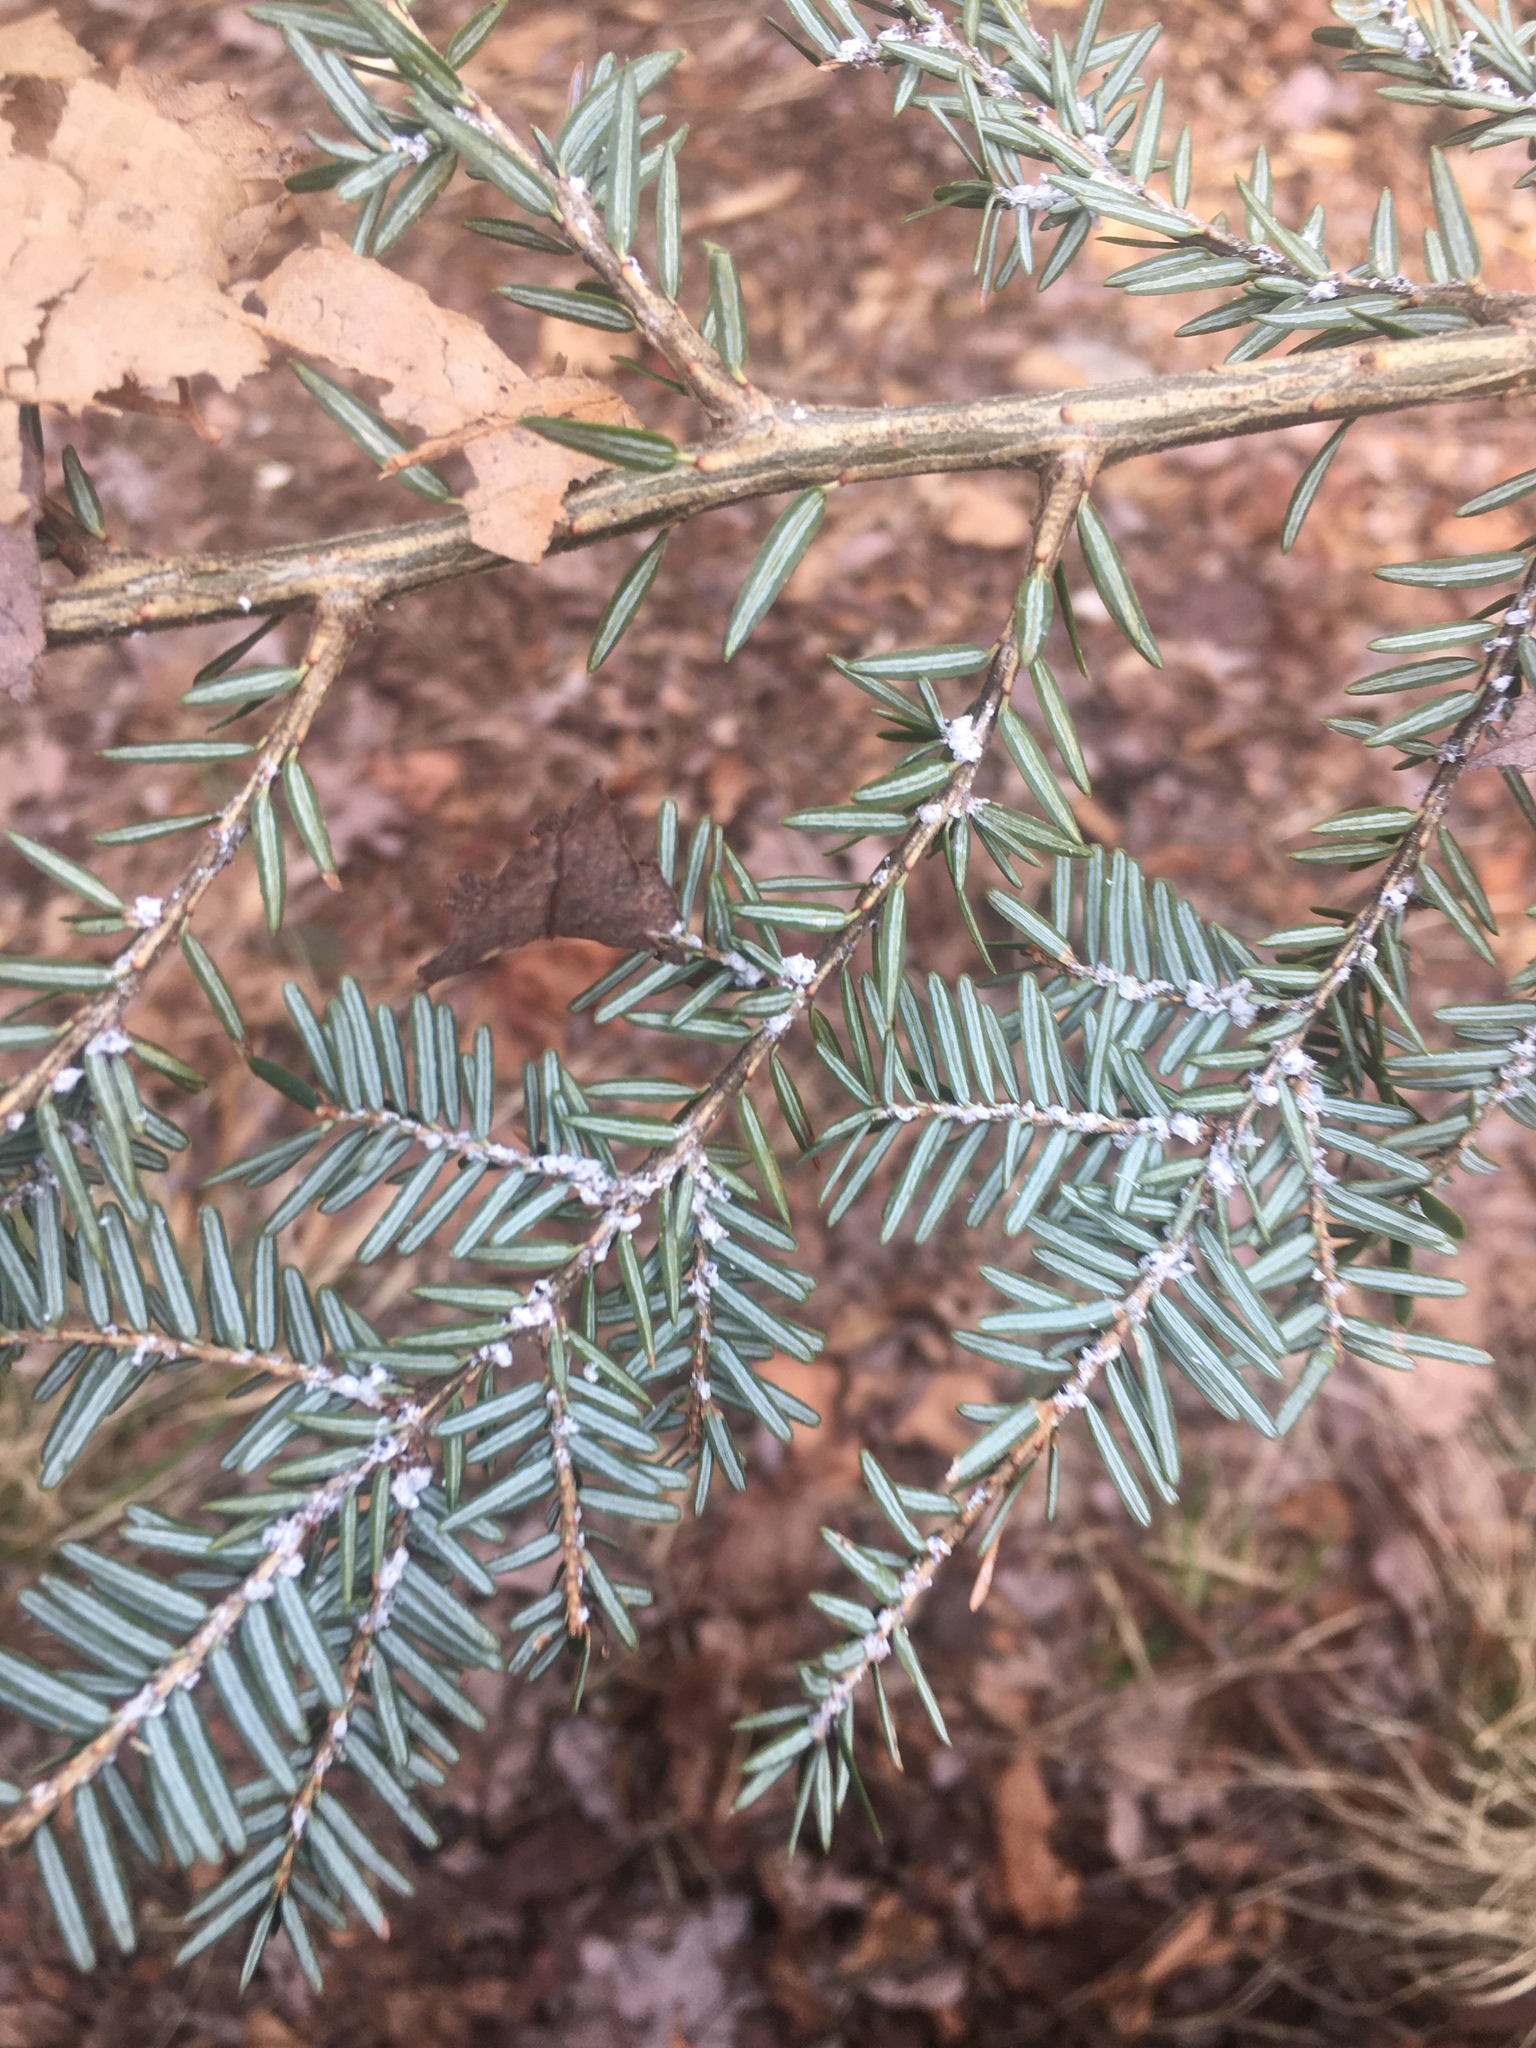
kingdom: Animalia
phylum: Arthropoda
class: Insecta
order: Hemiptera
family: Adelgidae
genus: Adelges
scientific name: Adelges tsugae
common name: Hemlock woolly adelgid
